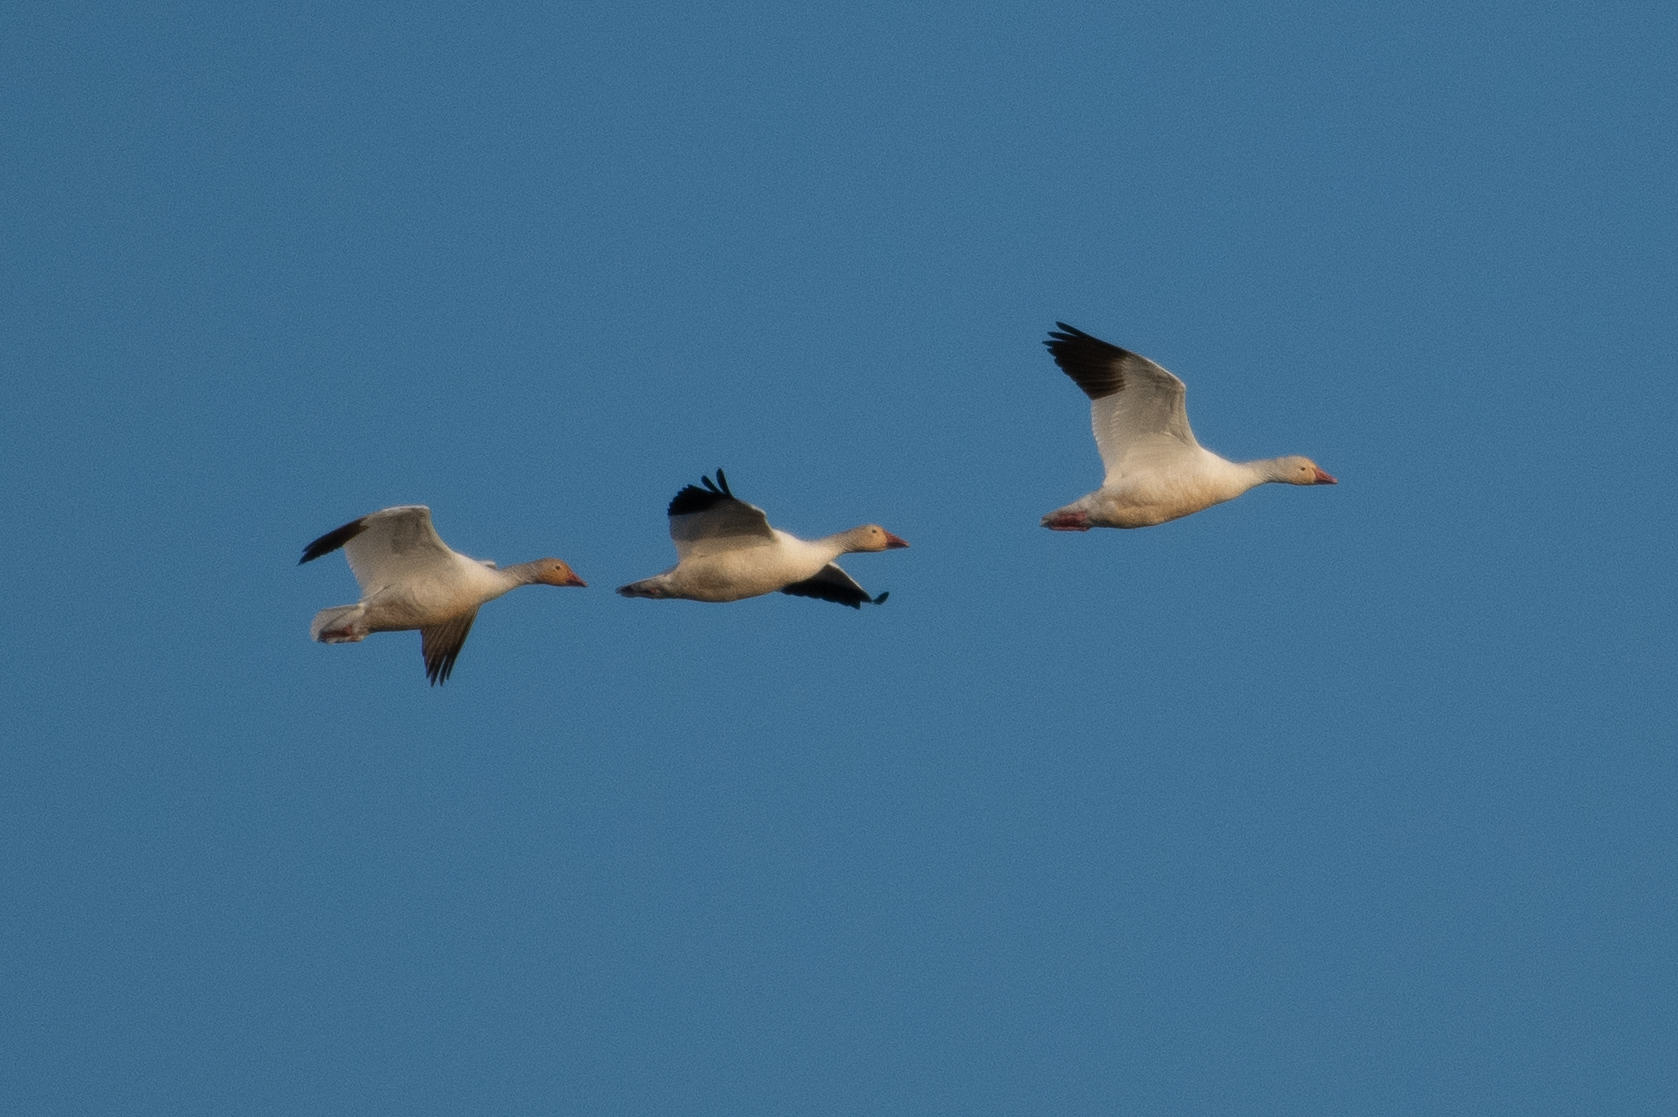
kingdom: Animalia
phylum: Chordata
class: Aves
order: Anseriformes
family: Anatidae
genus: Anser
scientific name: Anser caerulescens
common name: Snow goose
